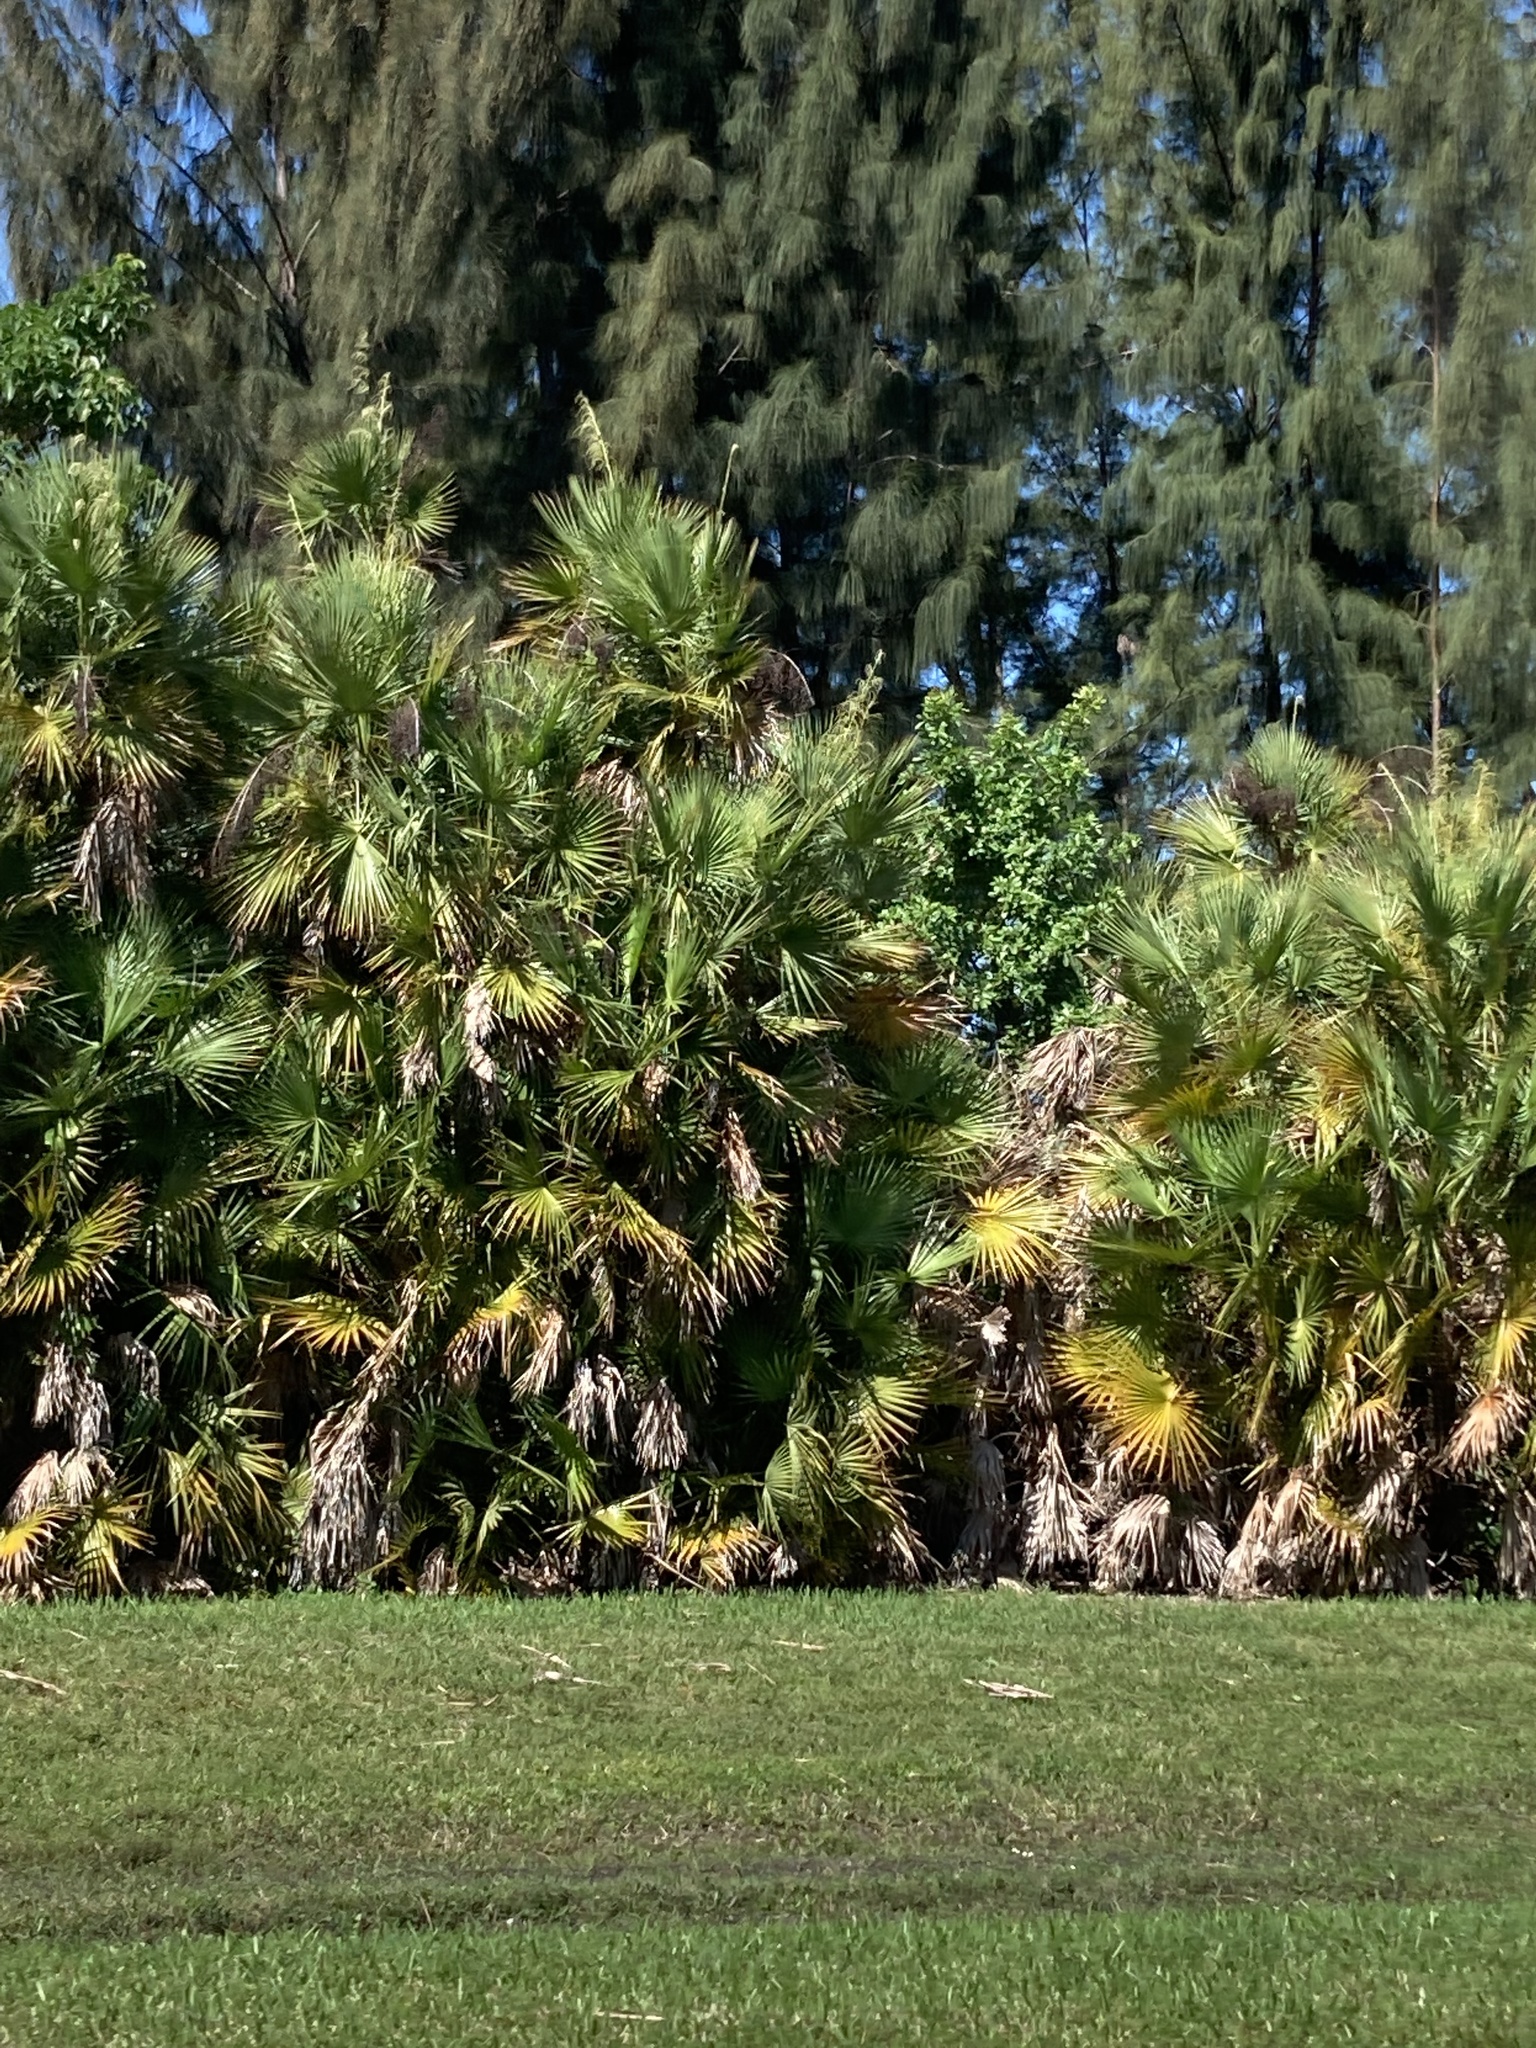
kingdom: Plantae
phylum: Tracheophyta
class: Liliopsida
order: Arecales
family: Arecaceae
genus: Acoelorraphe
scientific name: Acoelorraphe wrightii
